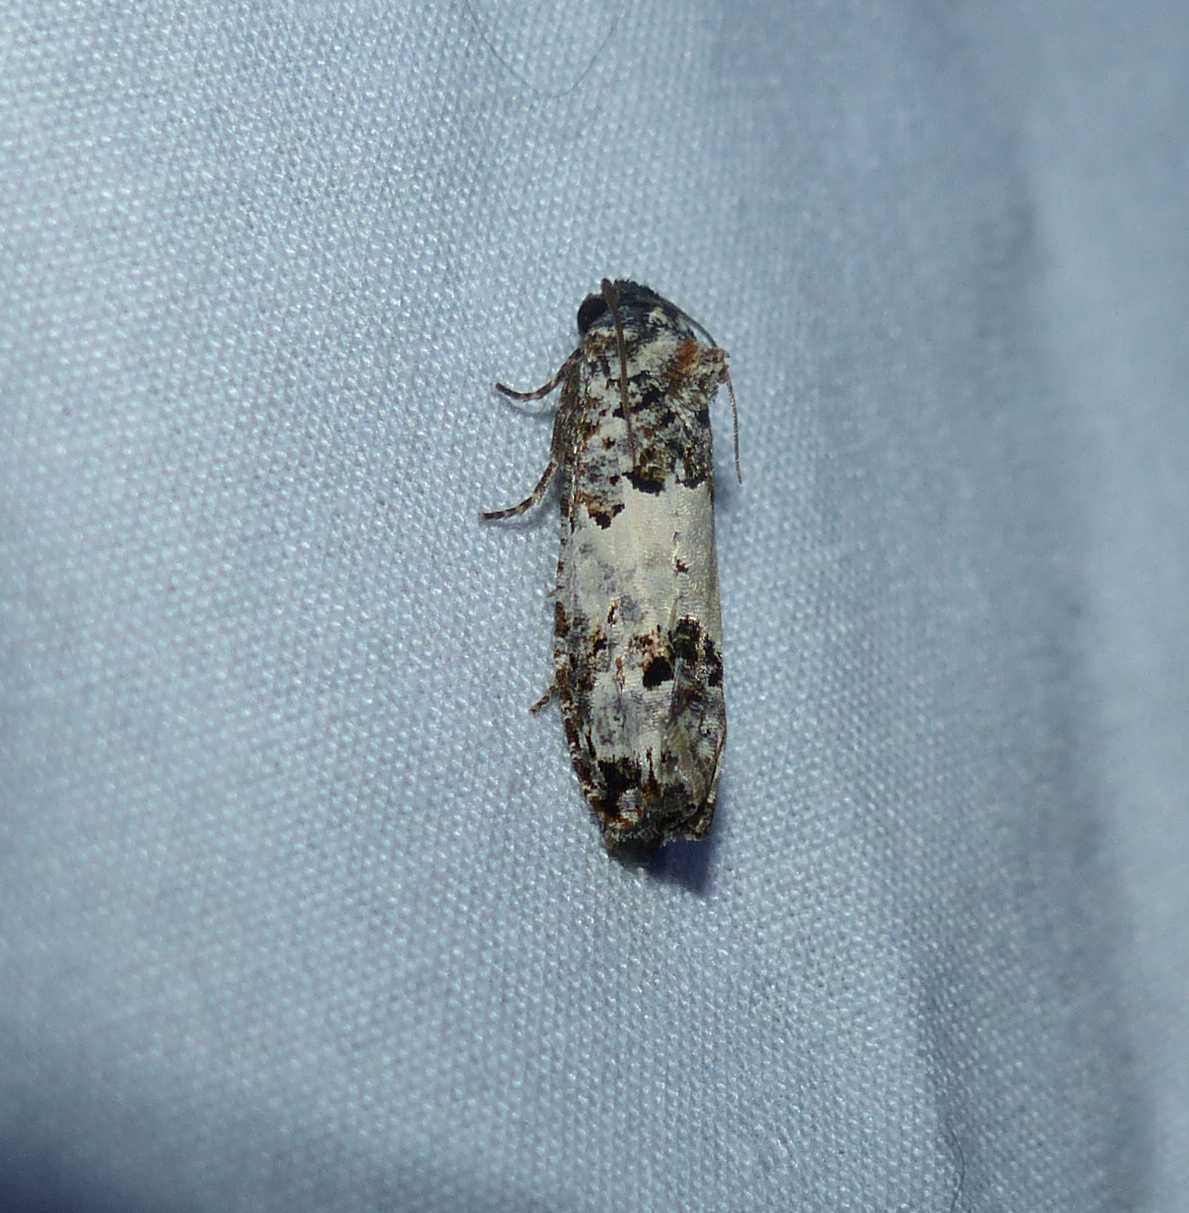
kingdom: Animalia
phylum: Arthropoda
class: Insecta
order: Lepidoptera
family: Tortricidae
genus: Epiblema
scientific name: Epiblema carolinana
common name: Gray-blotched epiblema moth
